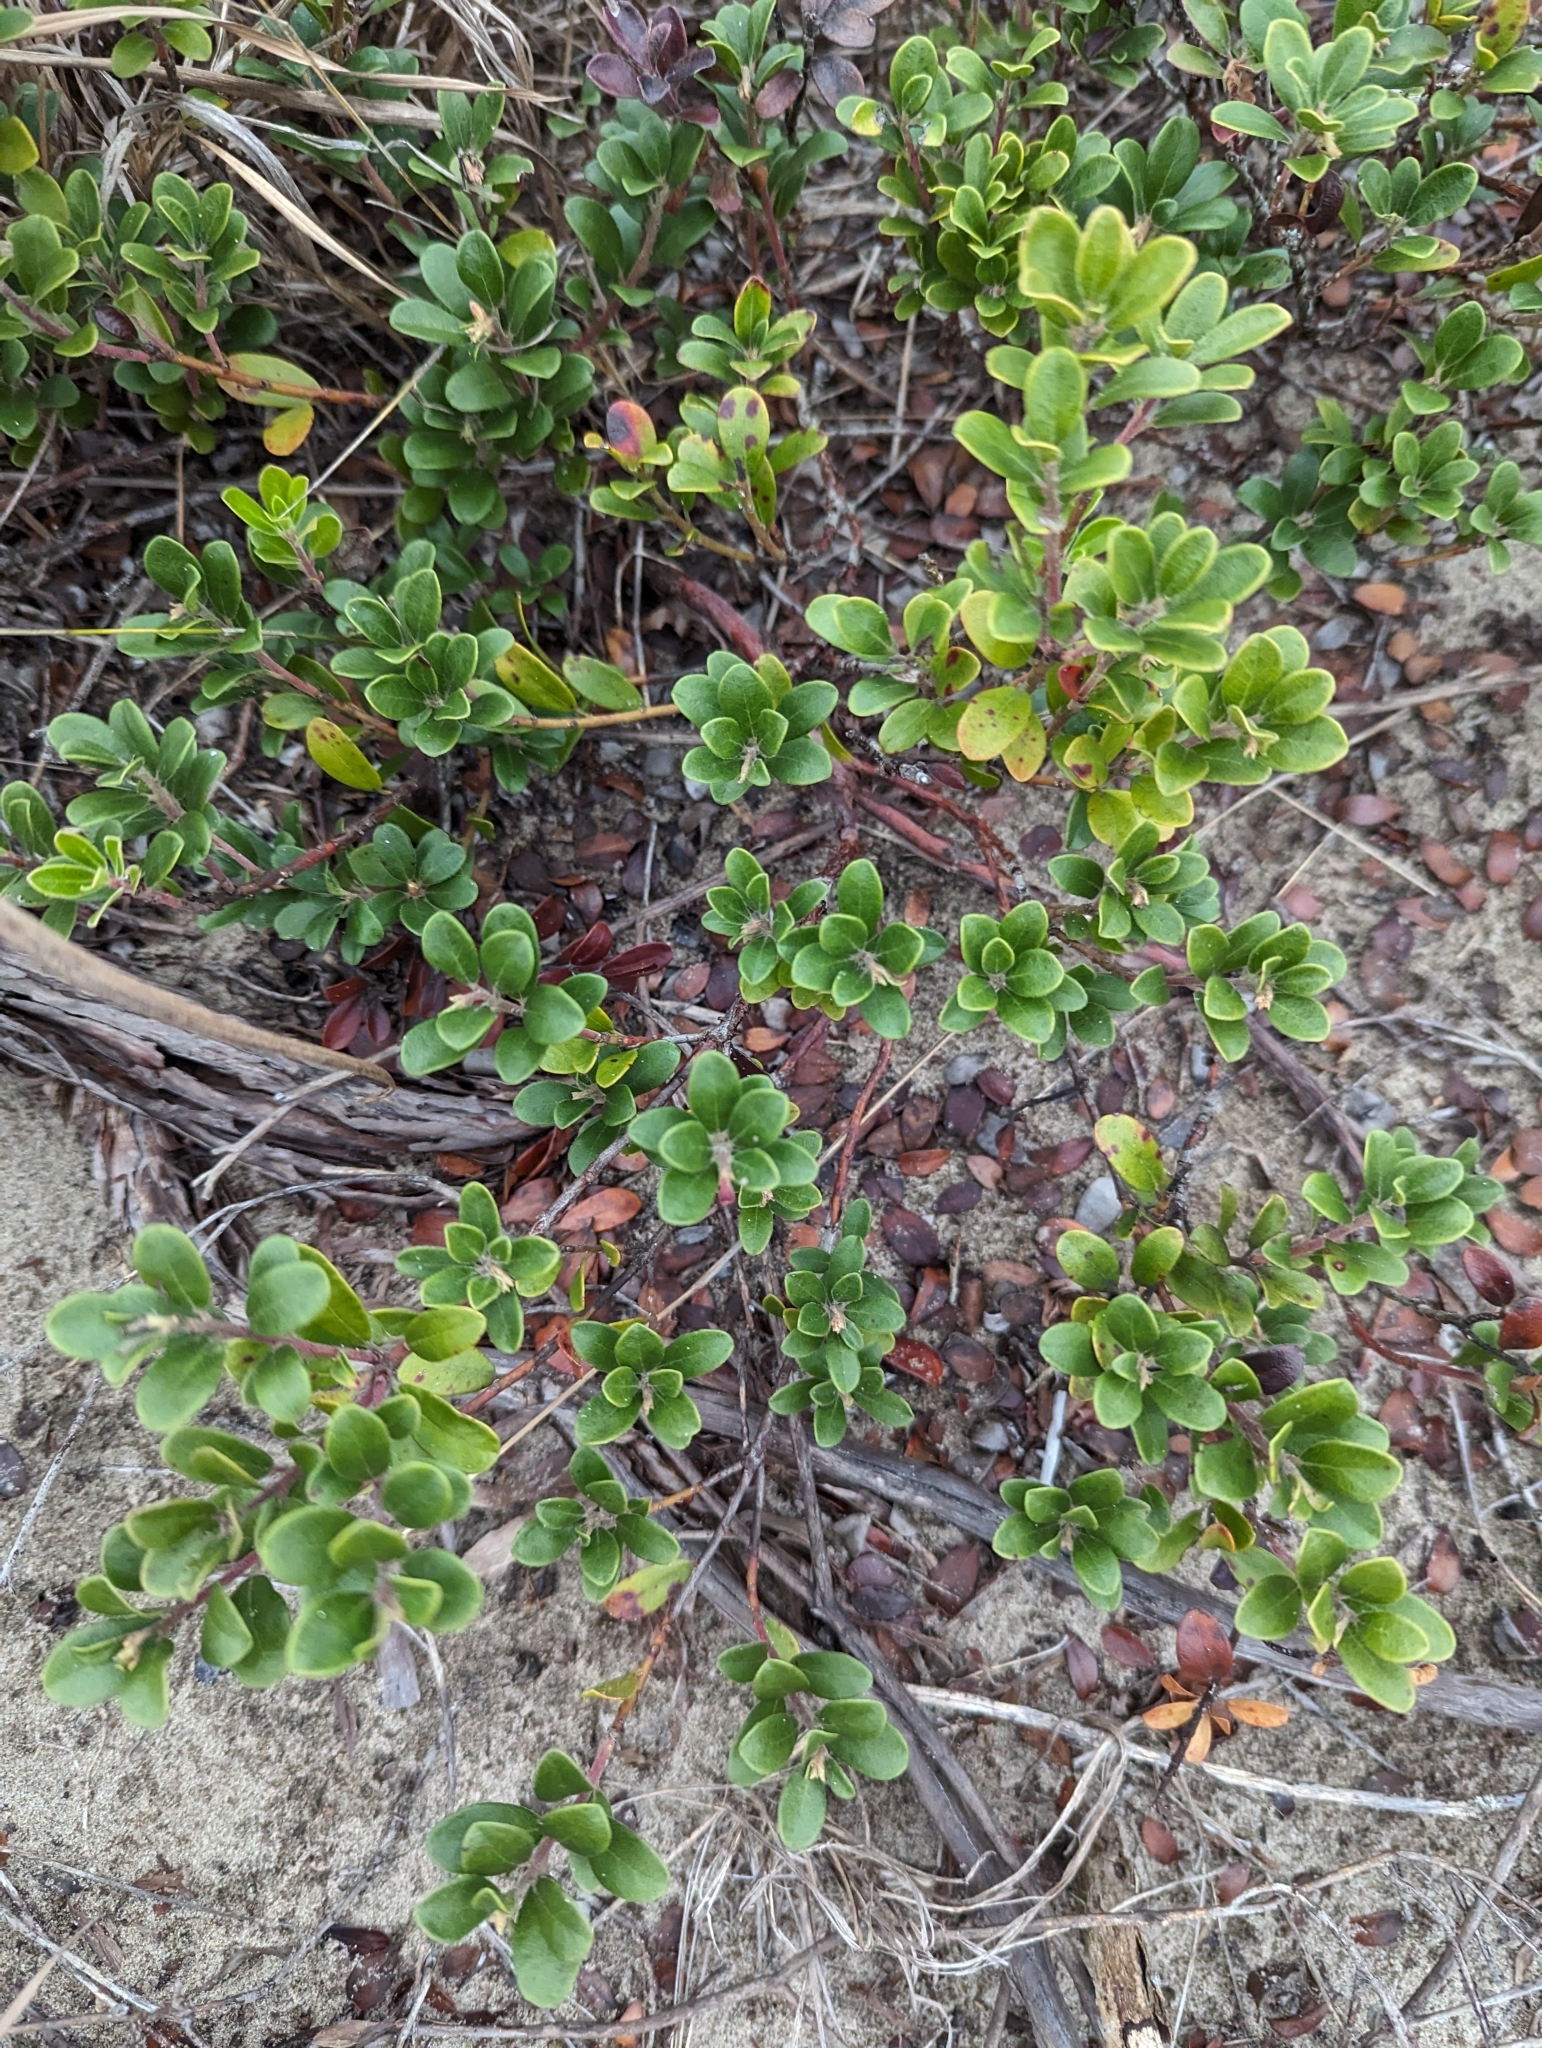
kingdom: Plantae
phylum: Tracheophyta
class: Magnoliopsida
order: Ericales
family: Ericaceae
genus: Arctostaphylos
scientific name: Arctostaphylos uva-ursi
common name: Bearberry
